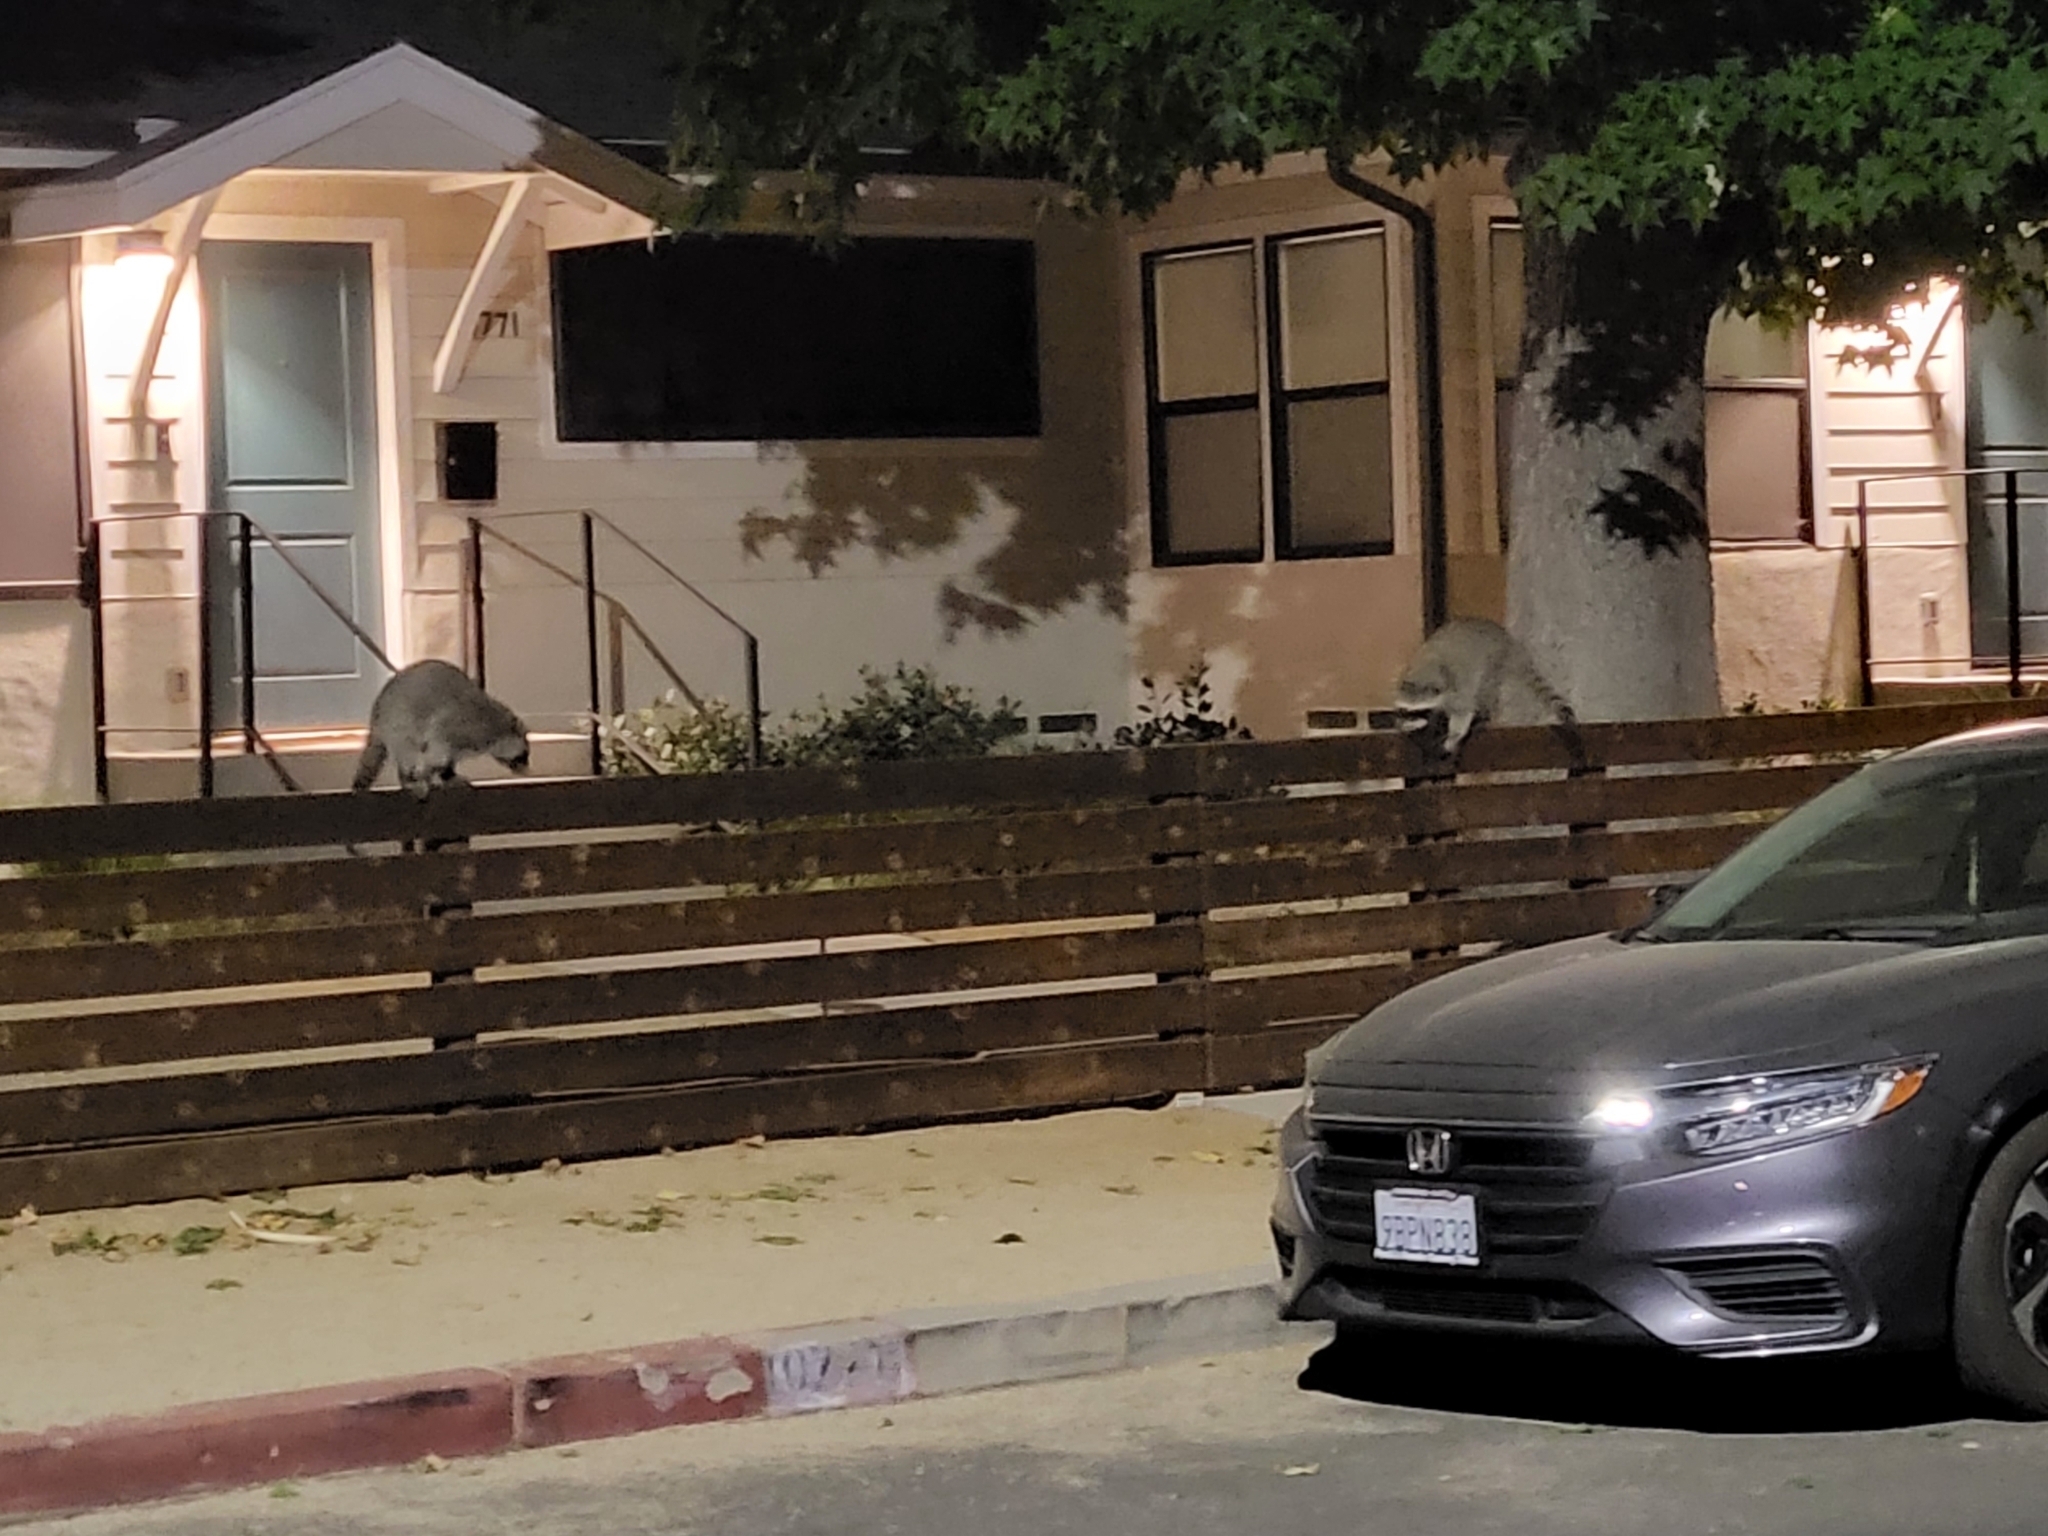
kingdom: Animalia
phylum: Chordata
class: Mammalia
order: Carnivora
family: Procyonidae
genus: Procyon
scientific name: Procyon lotor
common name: Raccoon
